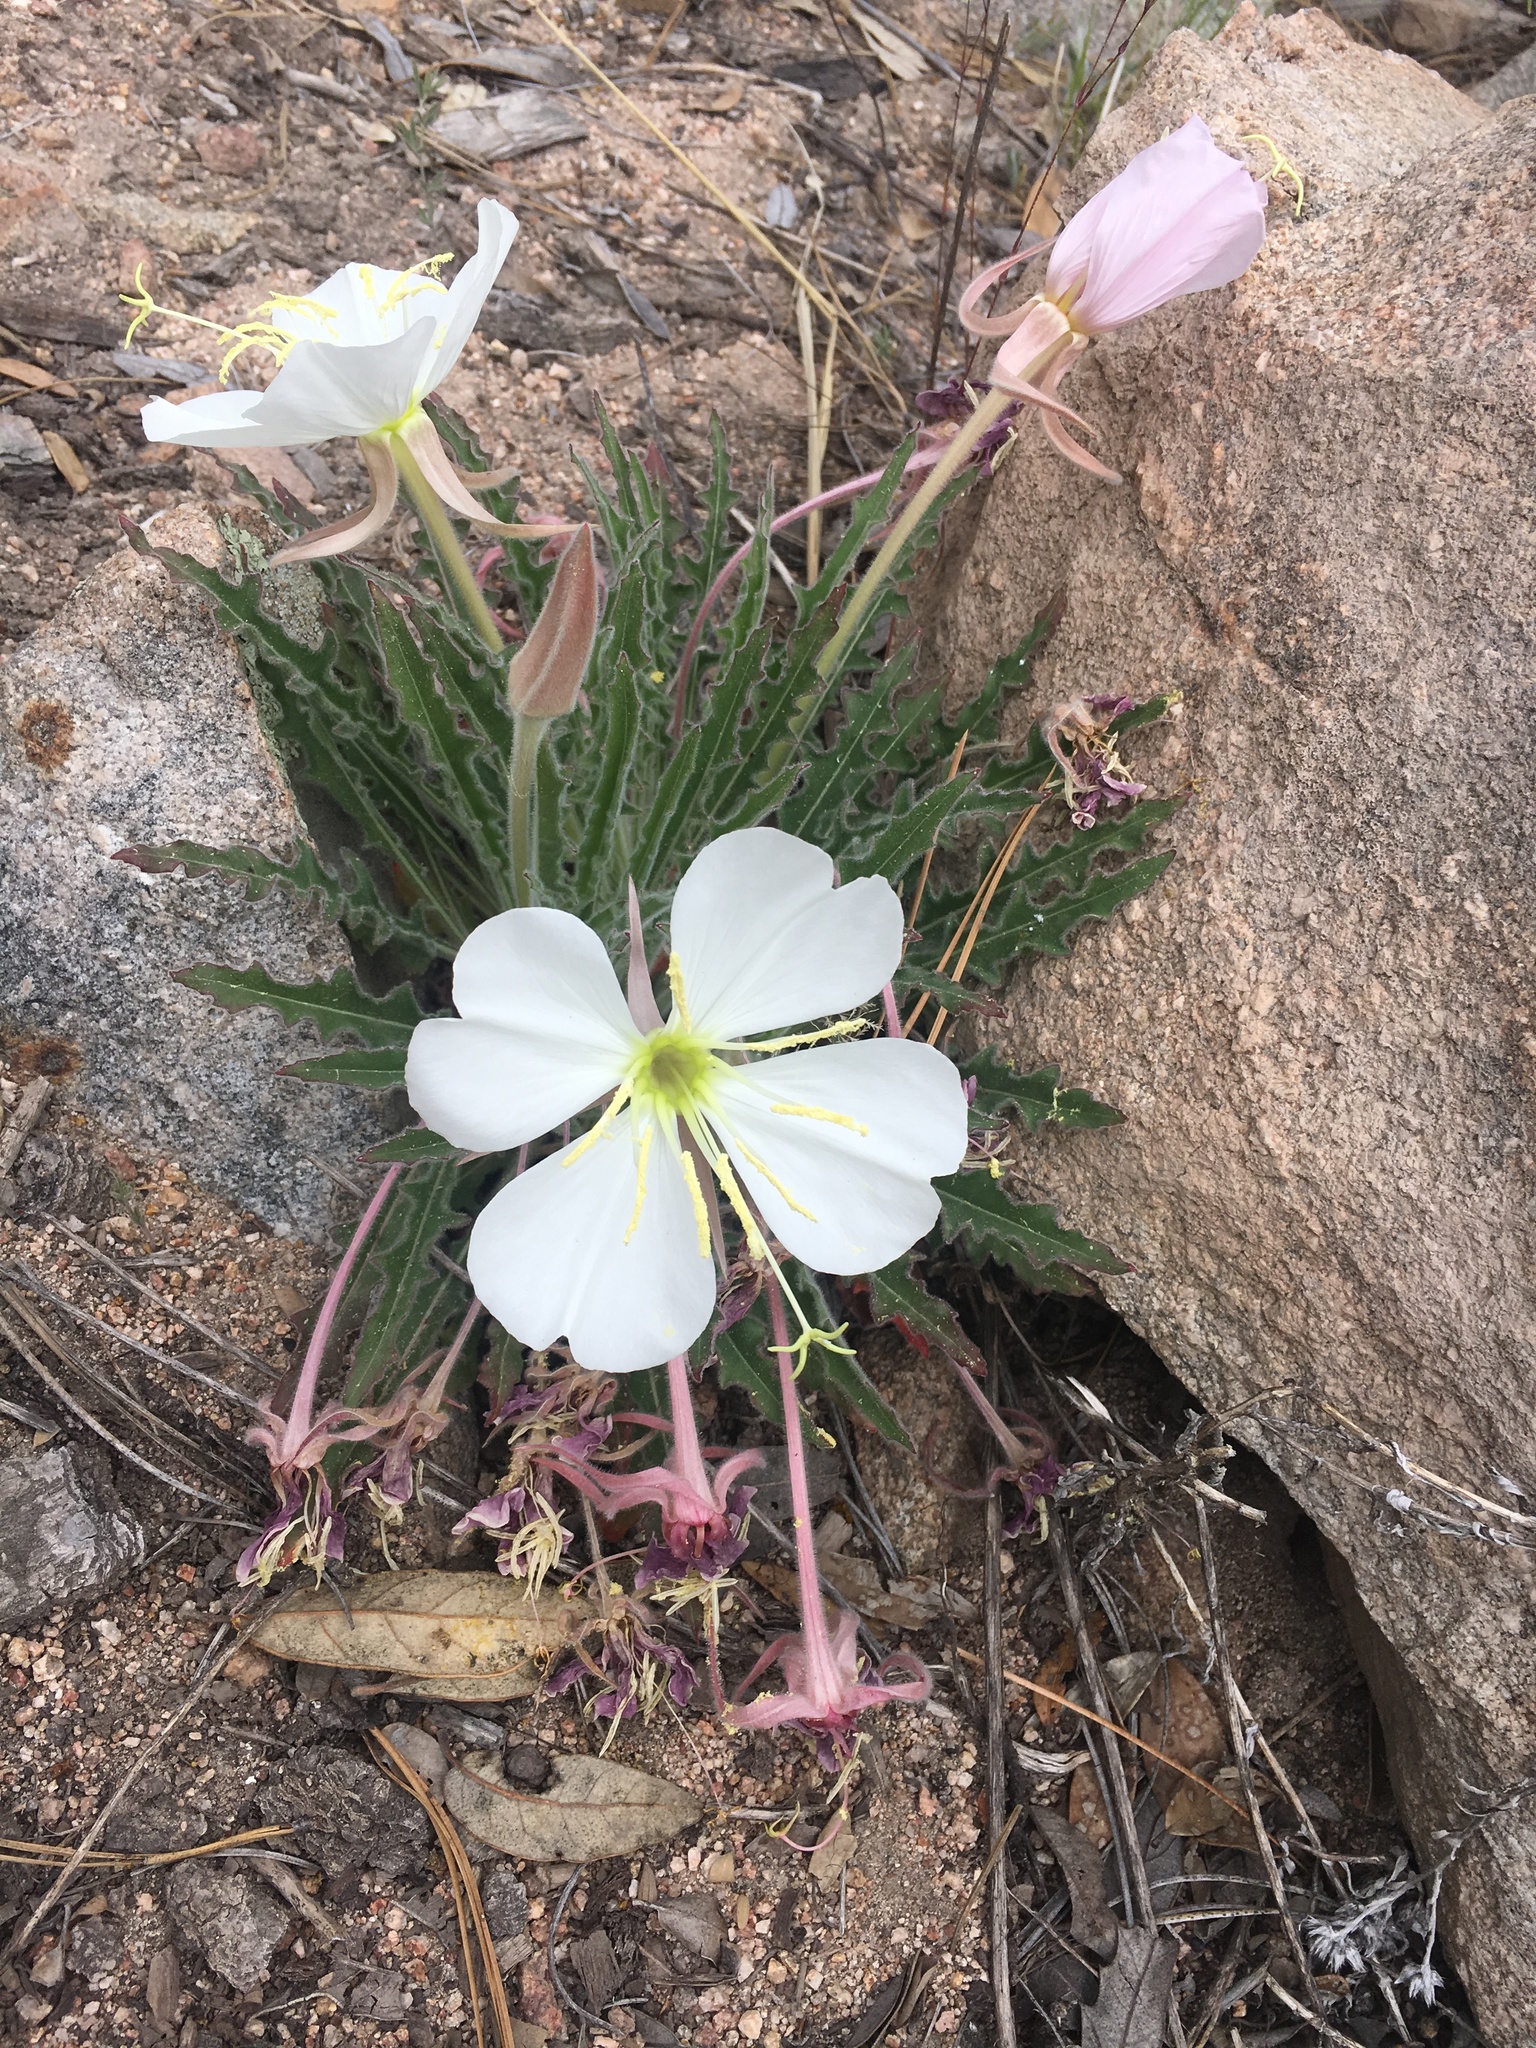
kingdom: Plantae
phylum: Tracheophyta
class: Magnoliopsida
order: Myrtales
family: Onagraceae
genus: Oenothera
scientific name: Oenothera cespitosa
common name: Tufted evening-primrose
